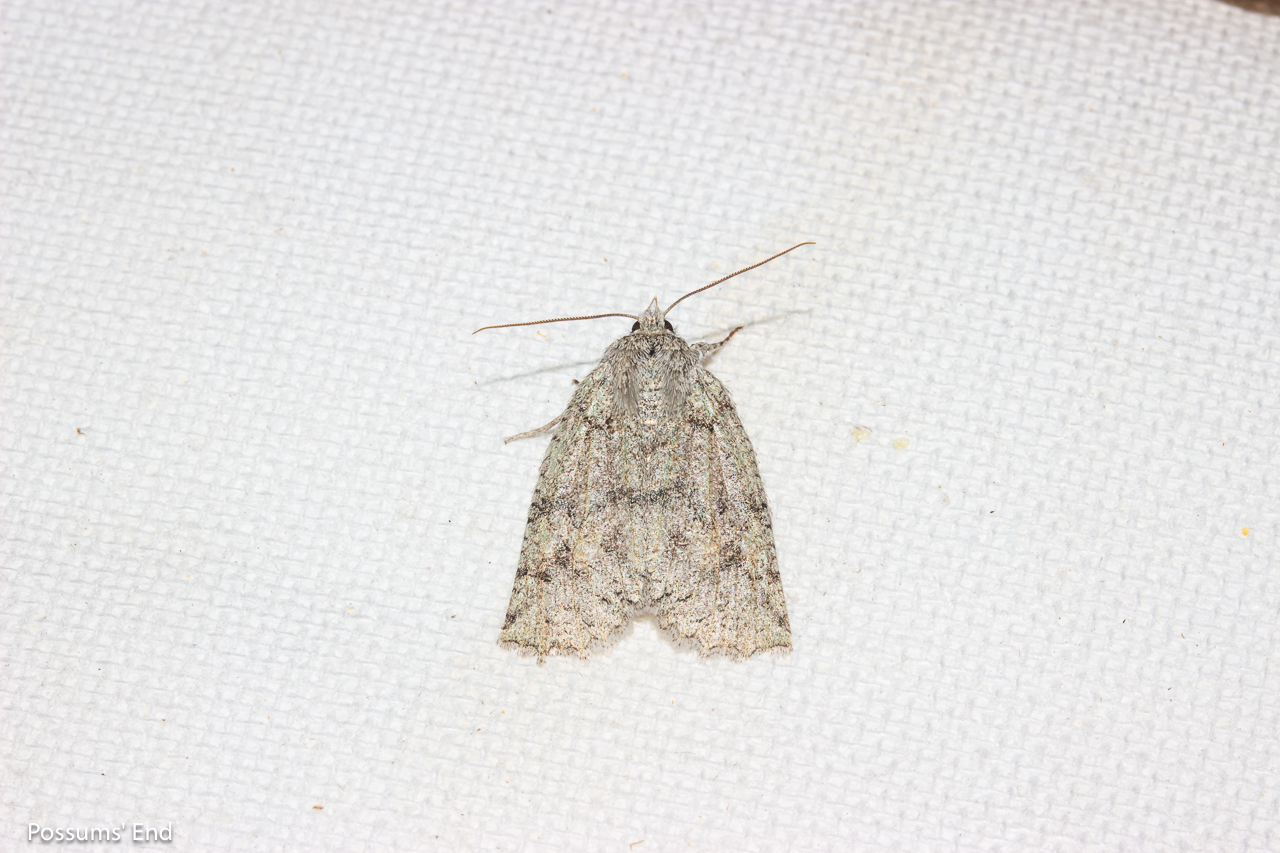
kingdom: Animalia
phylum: Arthropoda
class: Insecta
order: Lepidoptera
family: Geometridae
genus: Declana
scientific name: Declana floccosa
